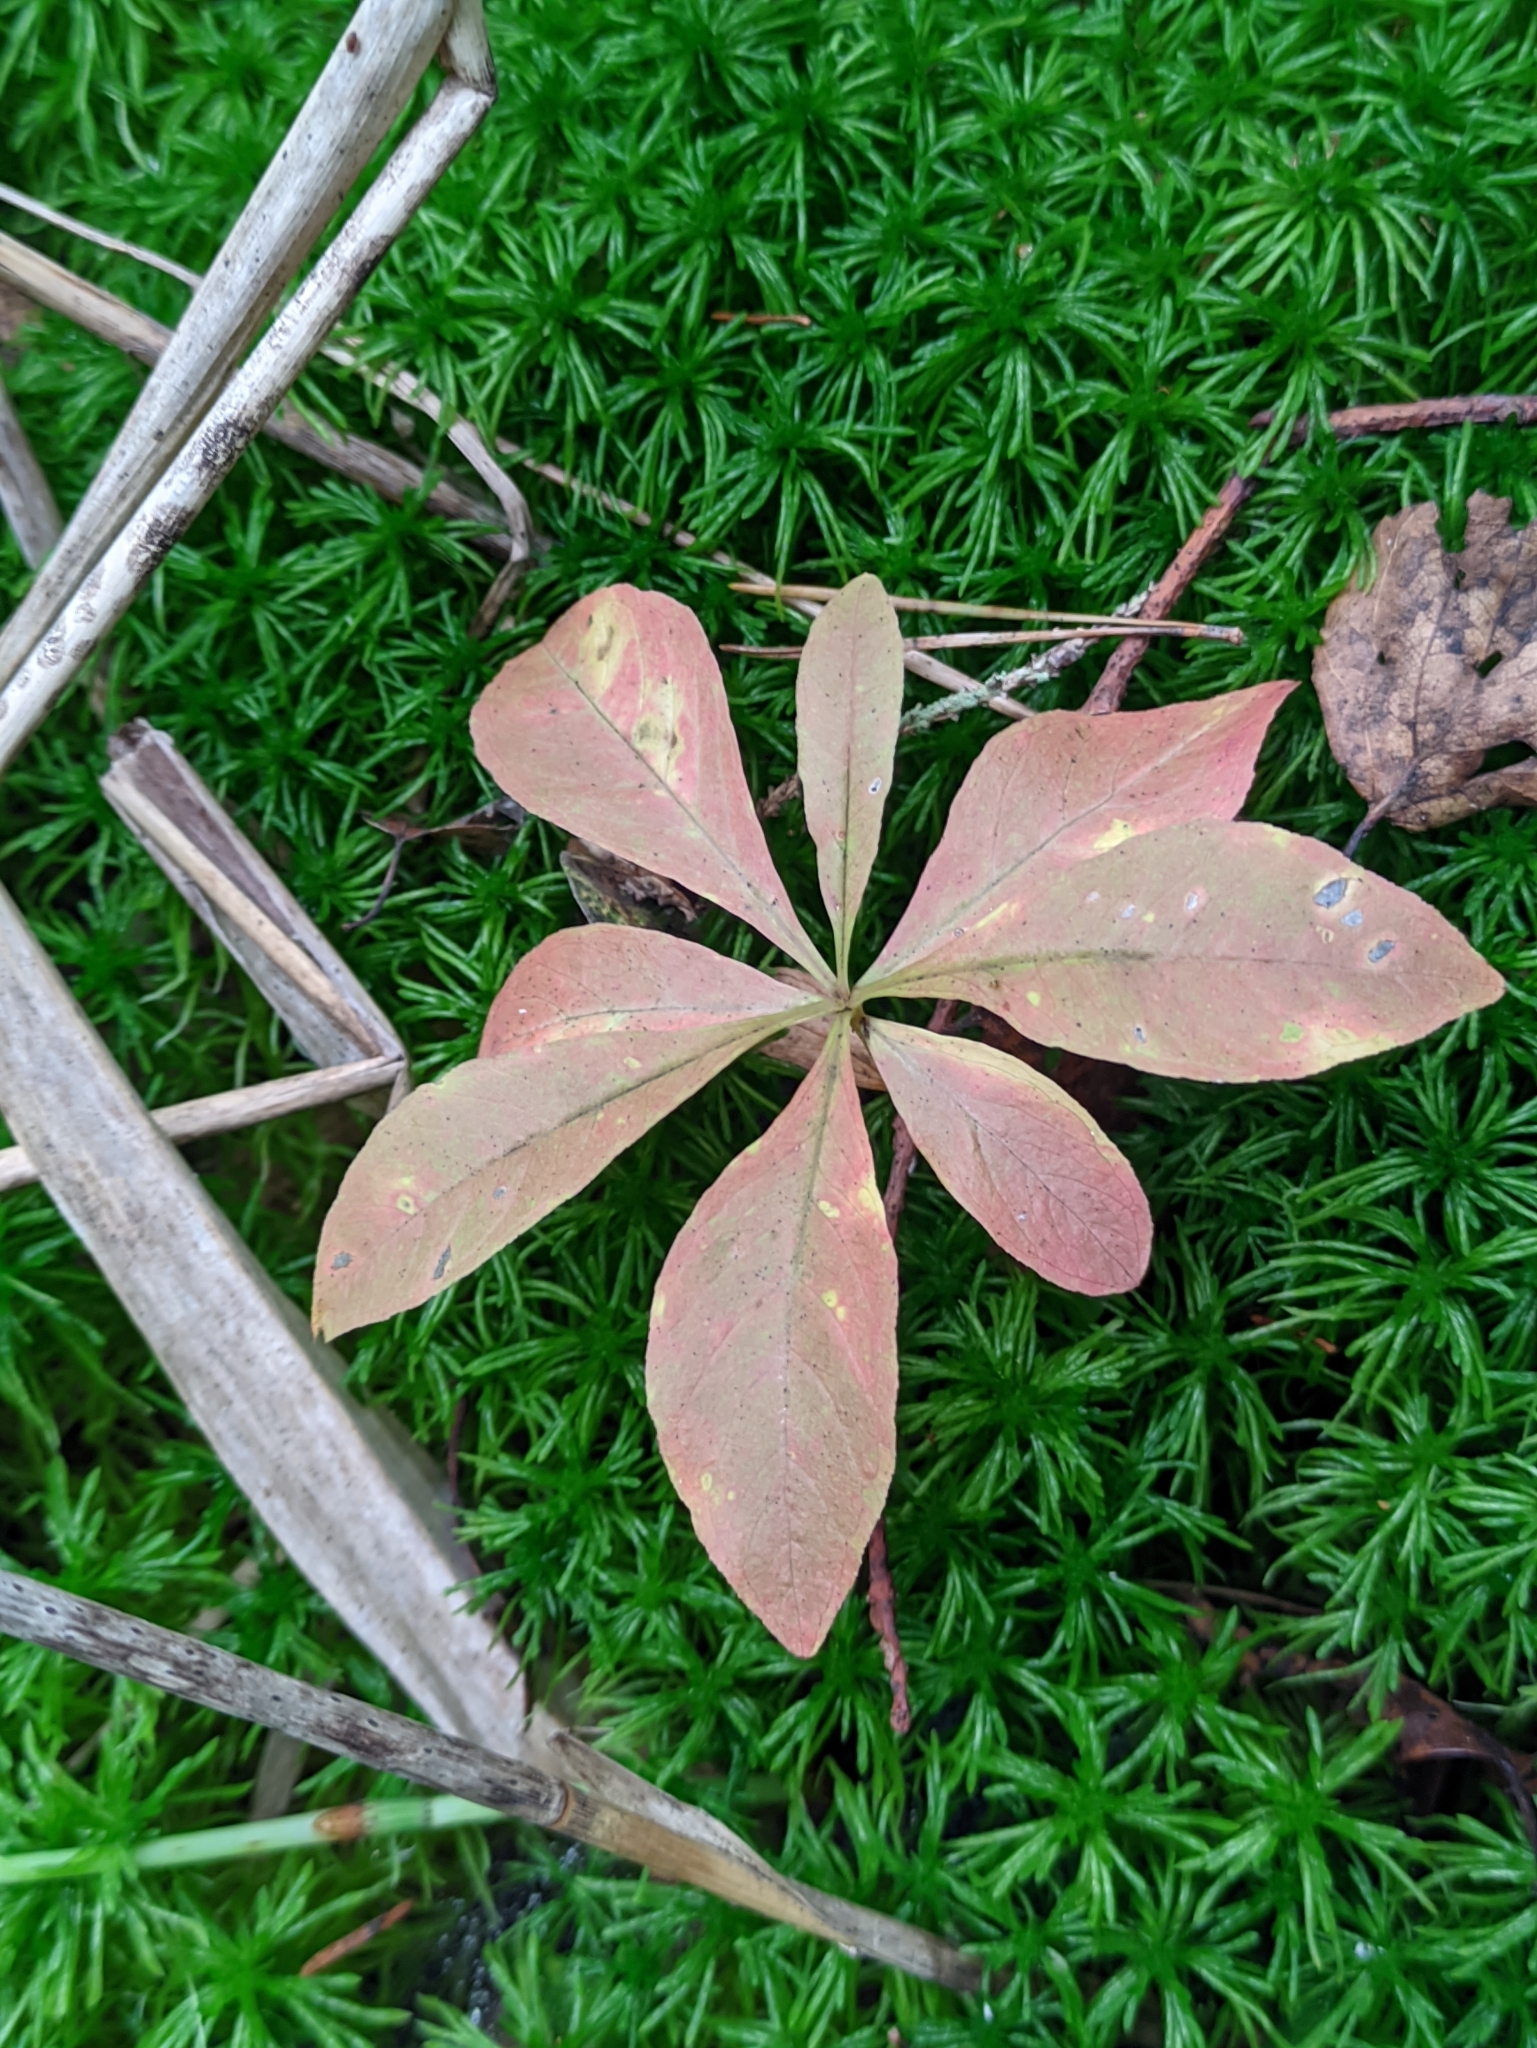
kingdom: Plantae
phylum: Tracheophyta
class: Magnoliopsida
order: Ericales
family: Primulaceae
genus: Lysimachia
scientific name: Lysimachia europaea
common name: Arctic starflower
